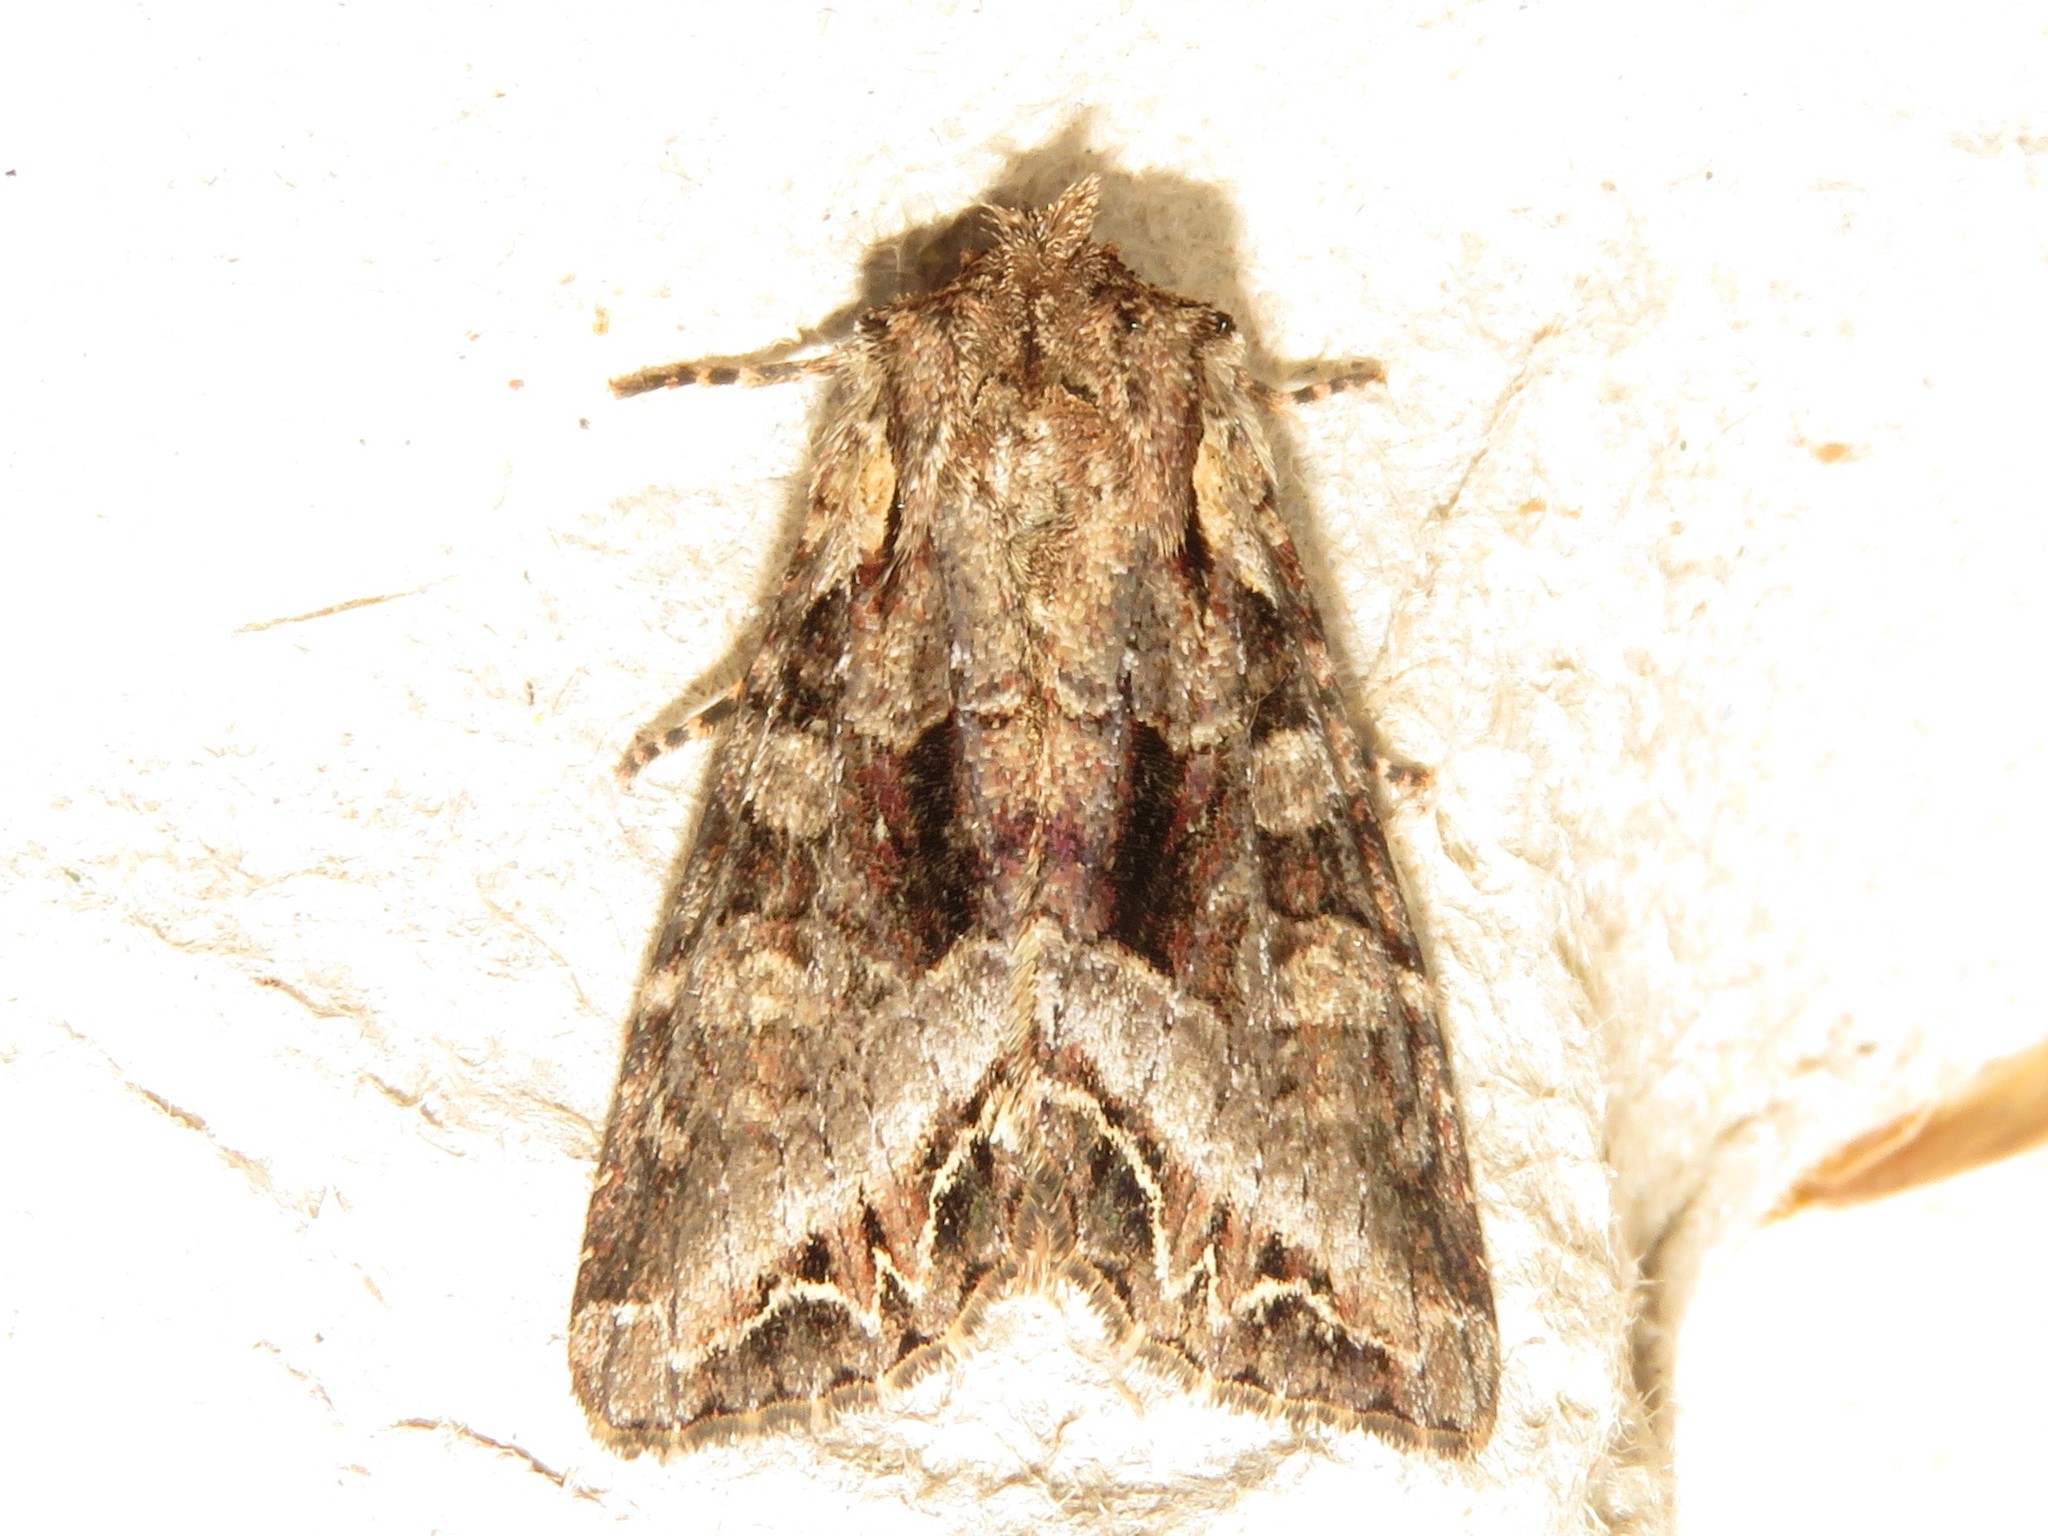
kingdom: Animalia
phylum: Arthropoda
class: Insecta
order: Lepidoptera
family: Noctuidae
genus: Lacanobia
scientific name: Lacanobia grandis
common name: Grand arches moth
